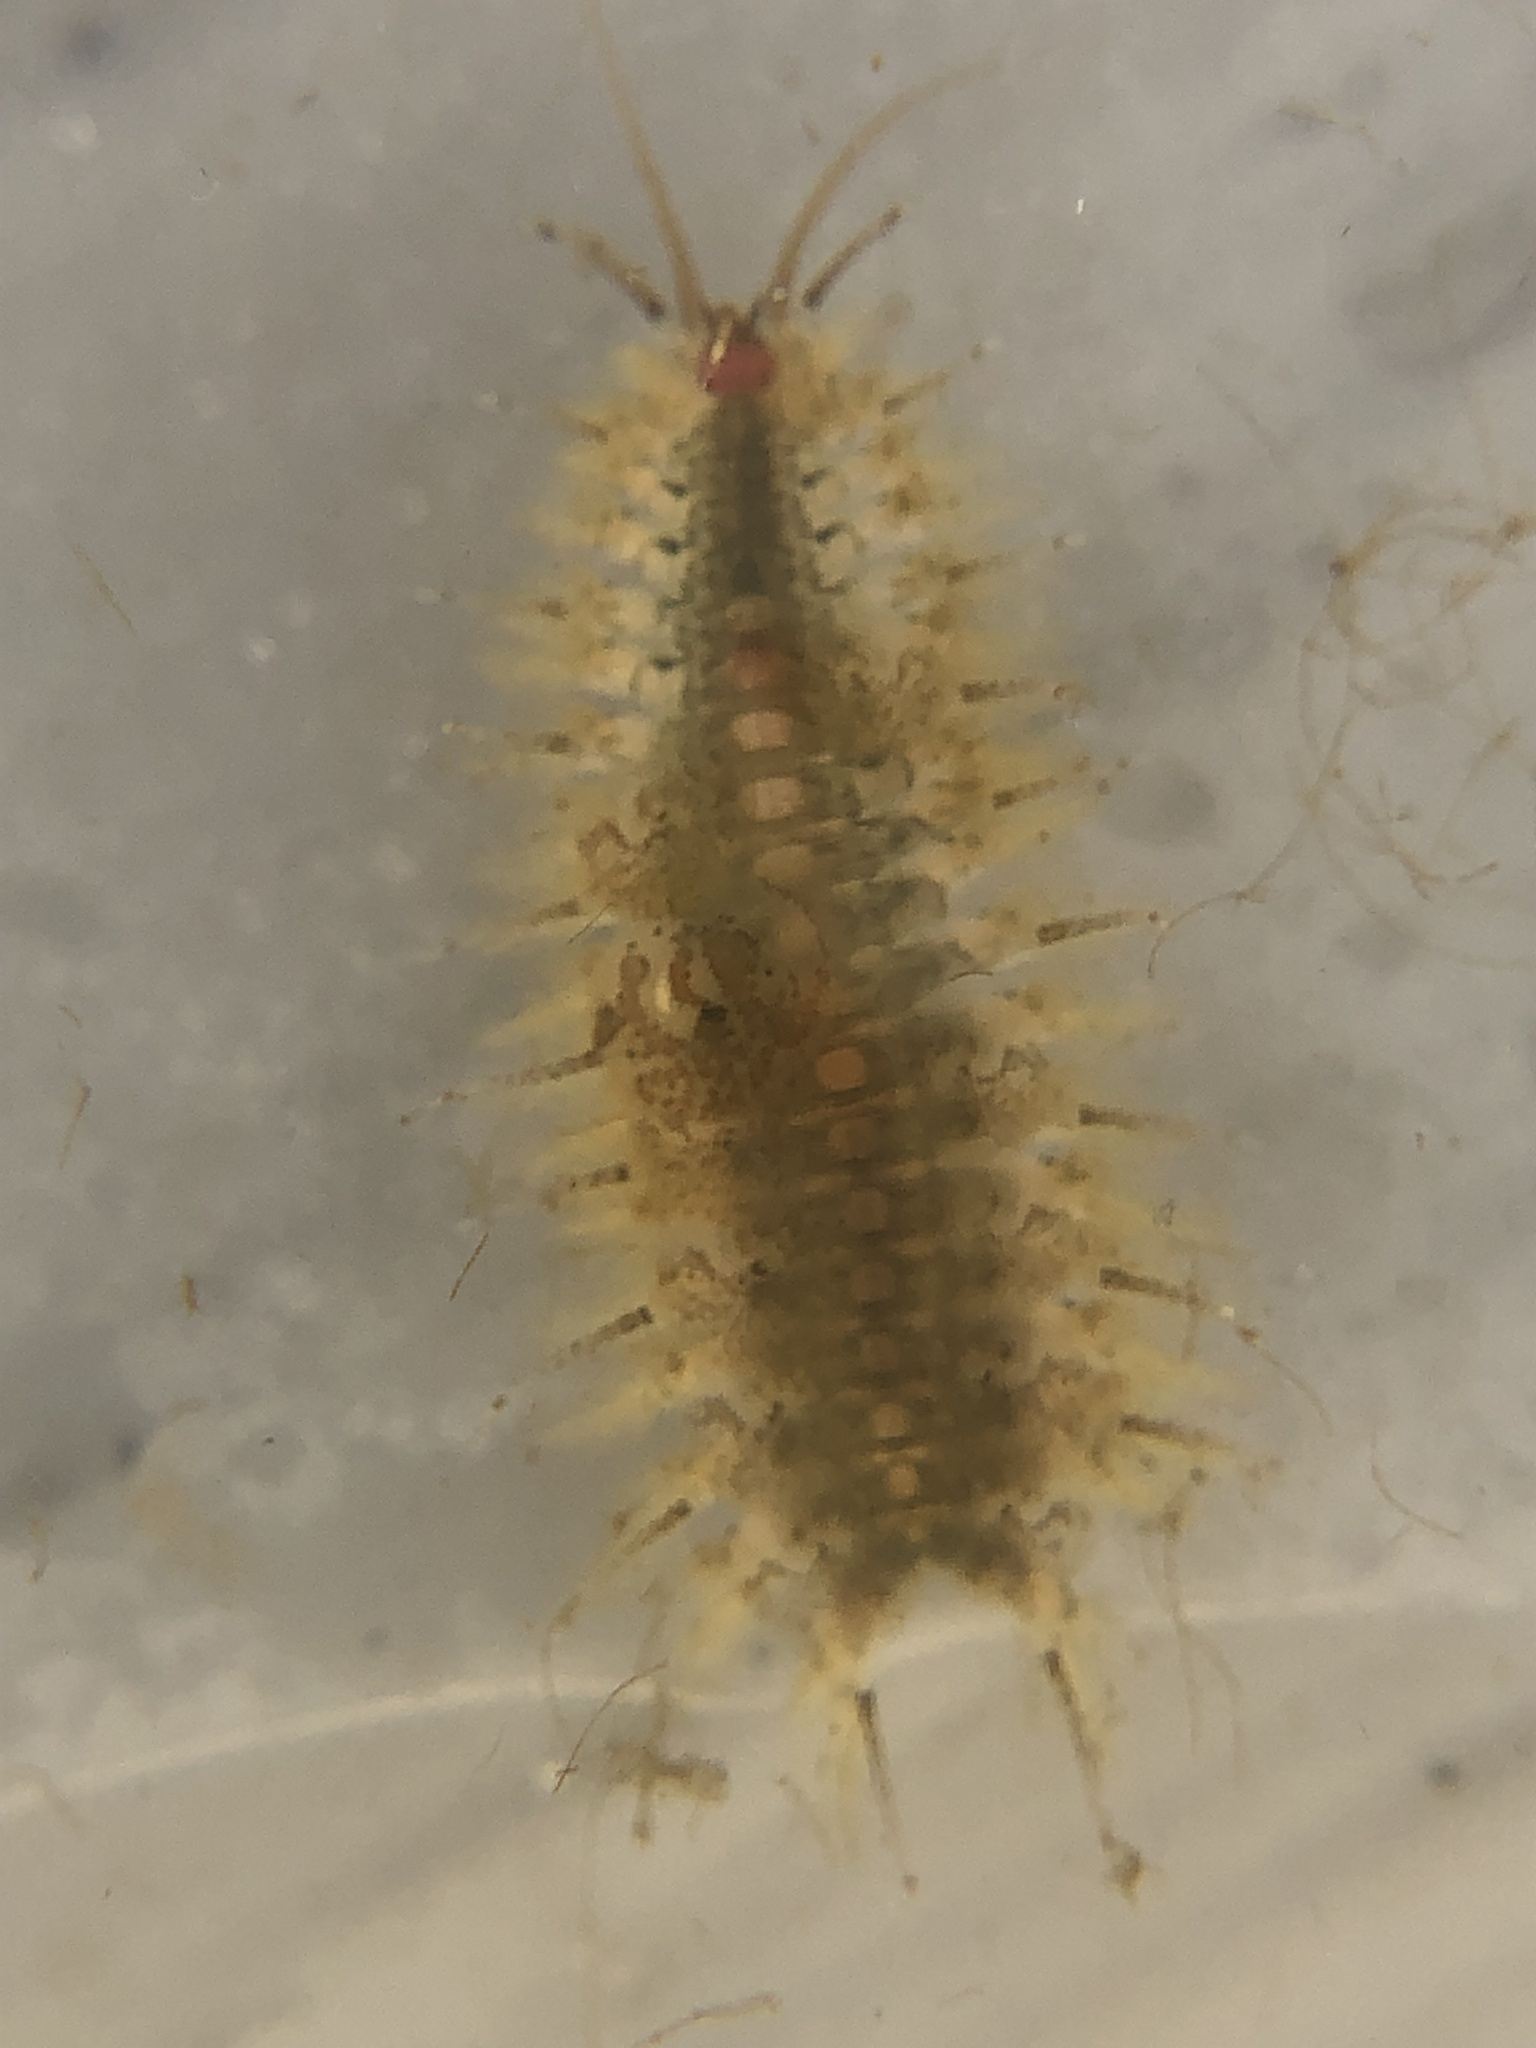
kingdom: Animalia
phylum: Annelida
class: Polychaeta
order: Phyllodocida
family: Polynoidae
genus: Harmothoe
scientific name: Harmothoe imbricata
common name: Fifteen-scaled worm
